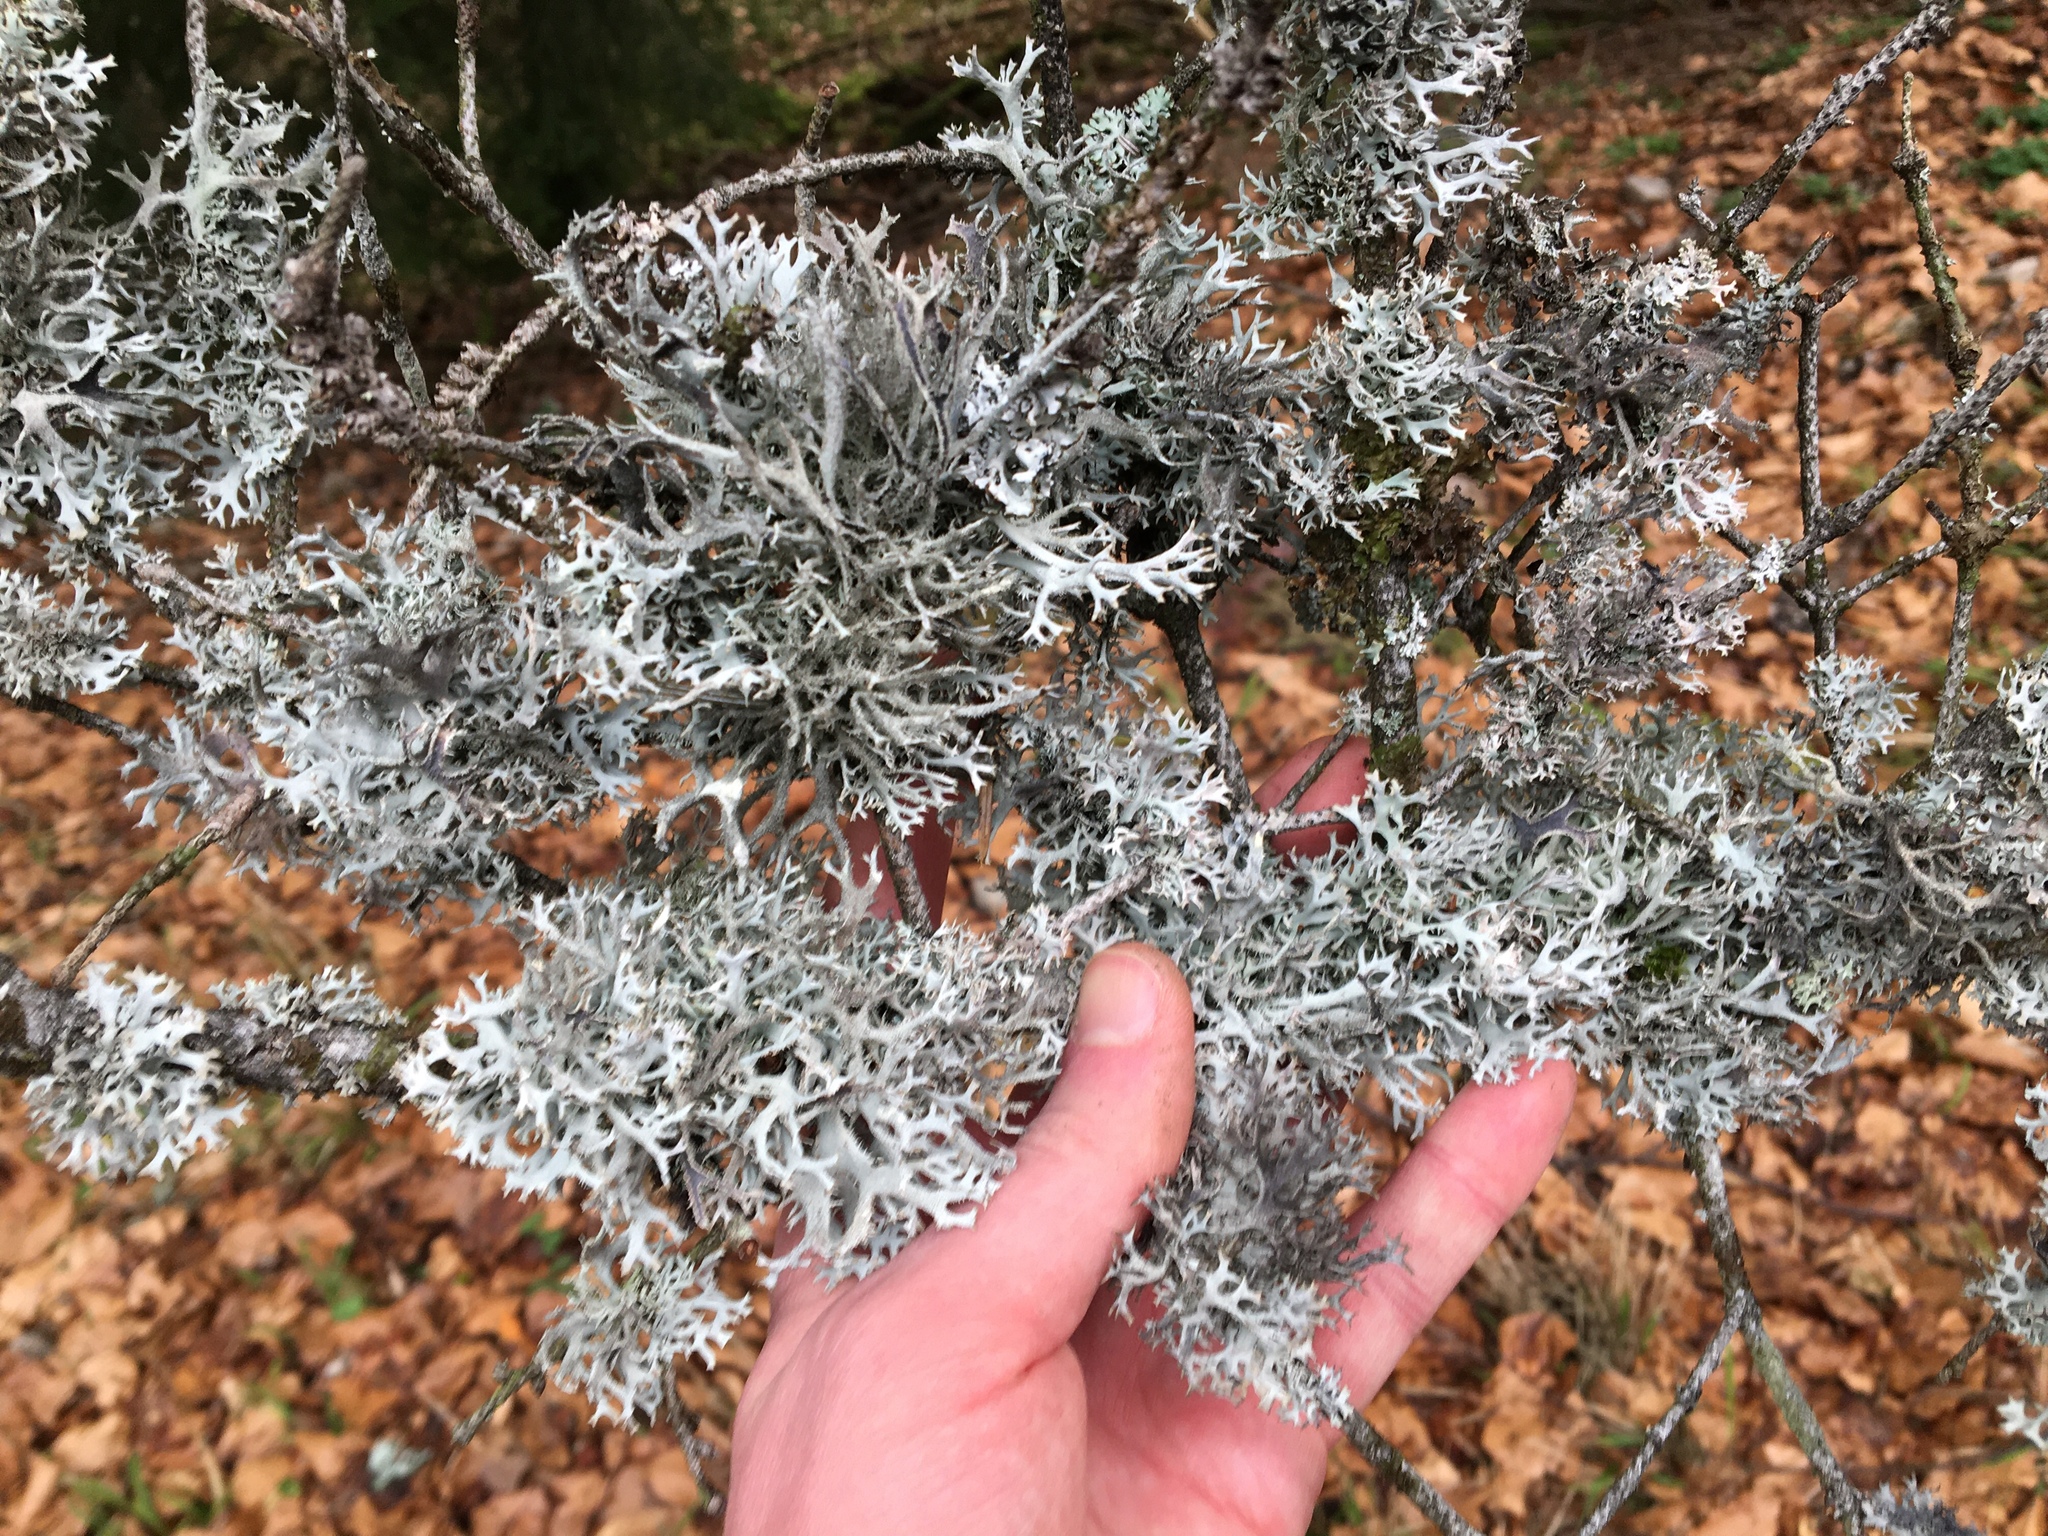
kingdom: Fungi
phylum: Ascomycota
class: Lecanoromycetes
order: Lecanorales
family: Parmeliaceae
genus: Pseudevernia
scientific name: Pseudevernia furfuracea
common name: Tree moss
